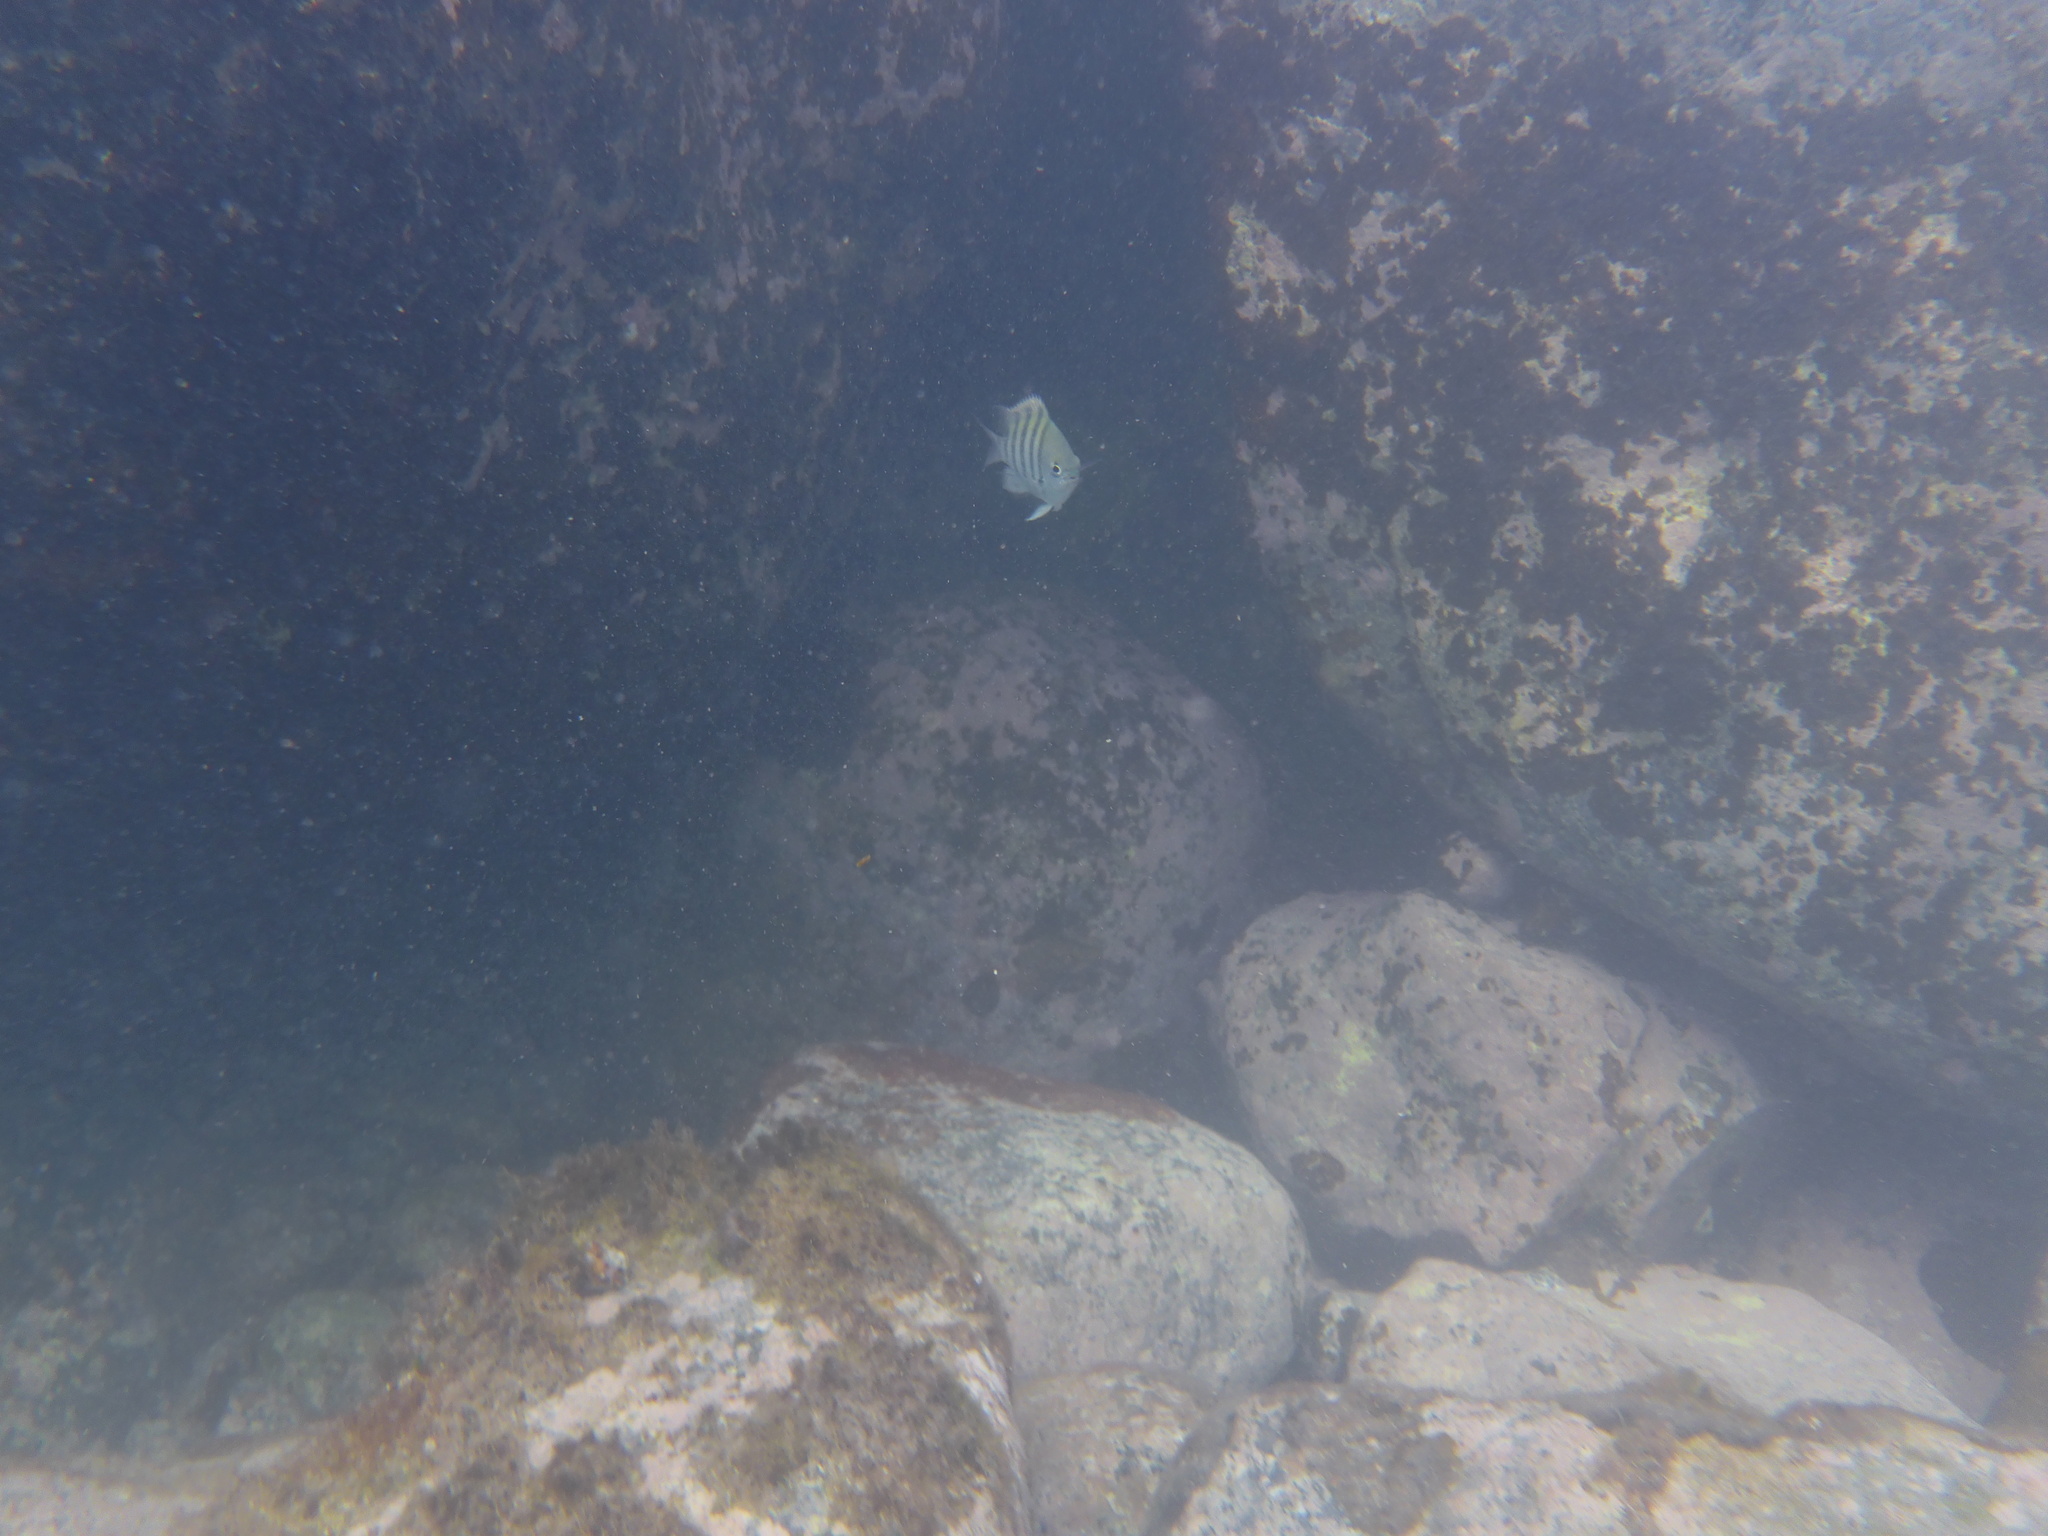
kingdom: Animalia
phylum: Chordata
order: Perciformes
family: Pomacentridae
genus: Abudefduf
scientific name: Abudefduf saxatilis
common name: Sergeant major
